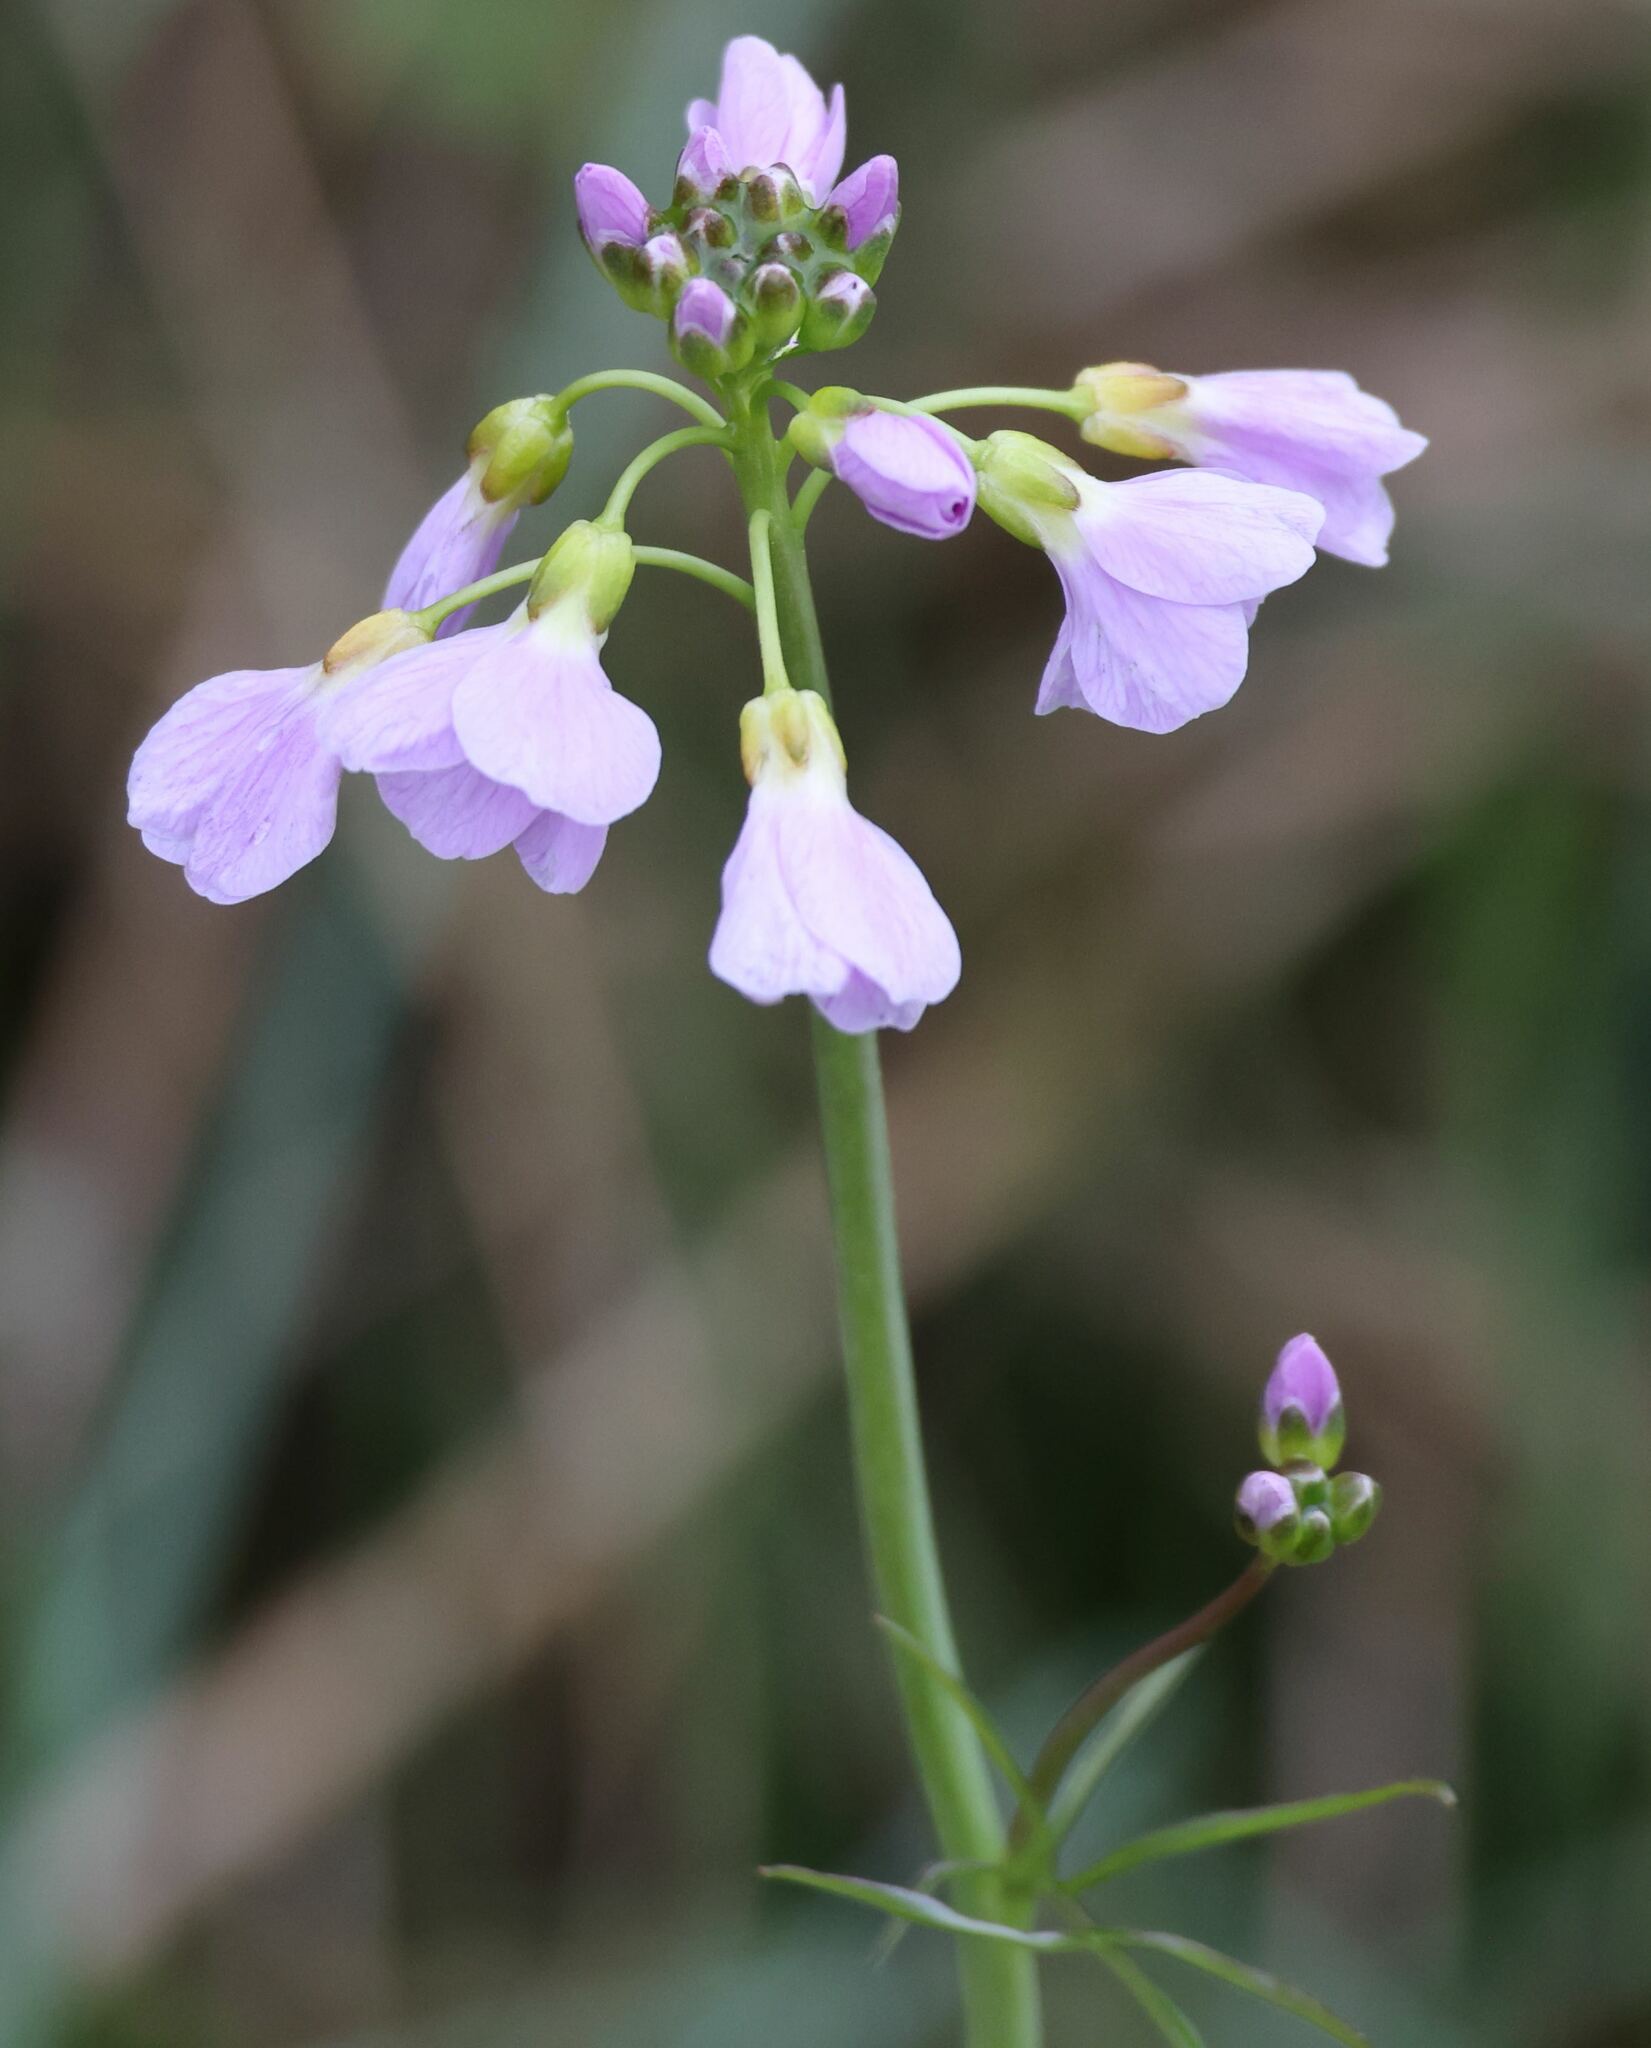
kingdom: Plantae
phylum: Tracheophyta
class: Magnoliopsida
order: Brassicales
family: Brassicaceae
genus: Cardamine
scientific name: Cardamine pratensis
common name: Cuckoo flower
